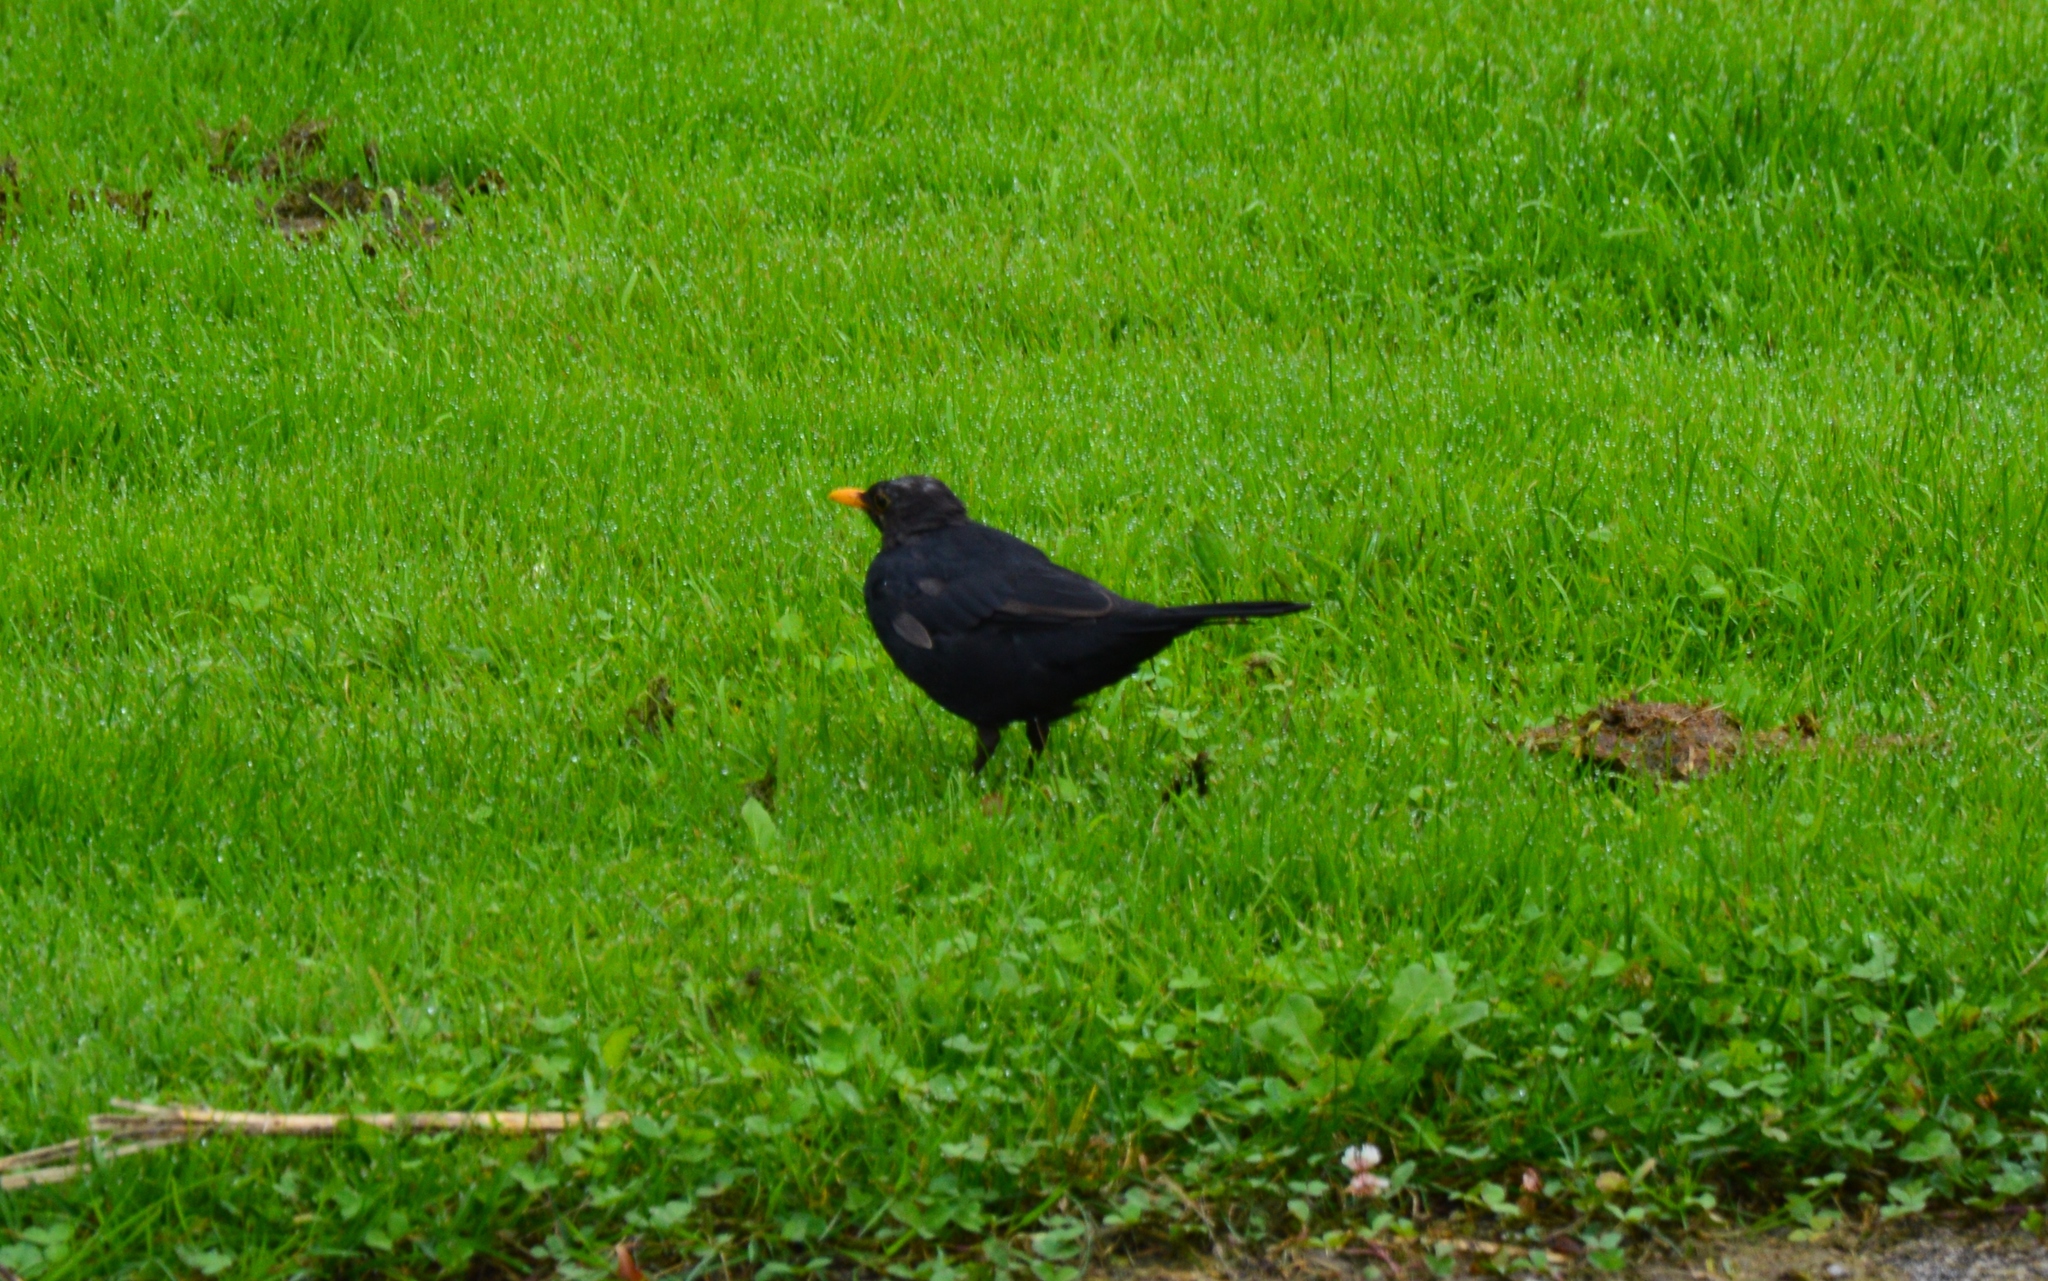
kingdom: Animalia
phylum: Chordata
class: Aves
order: Passeriformes
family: Turdidae
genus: Turdus
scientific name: Turdus merula
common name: Common blackbird
